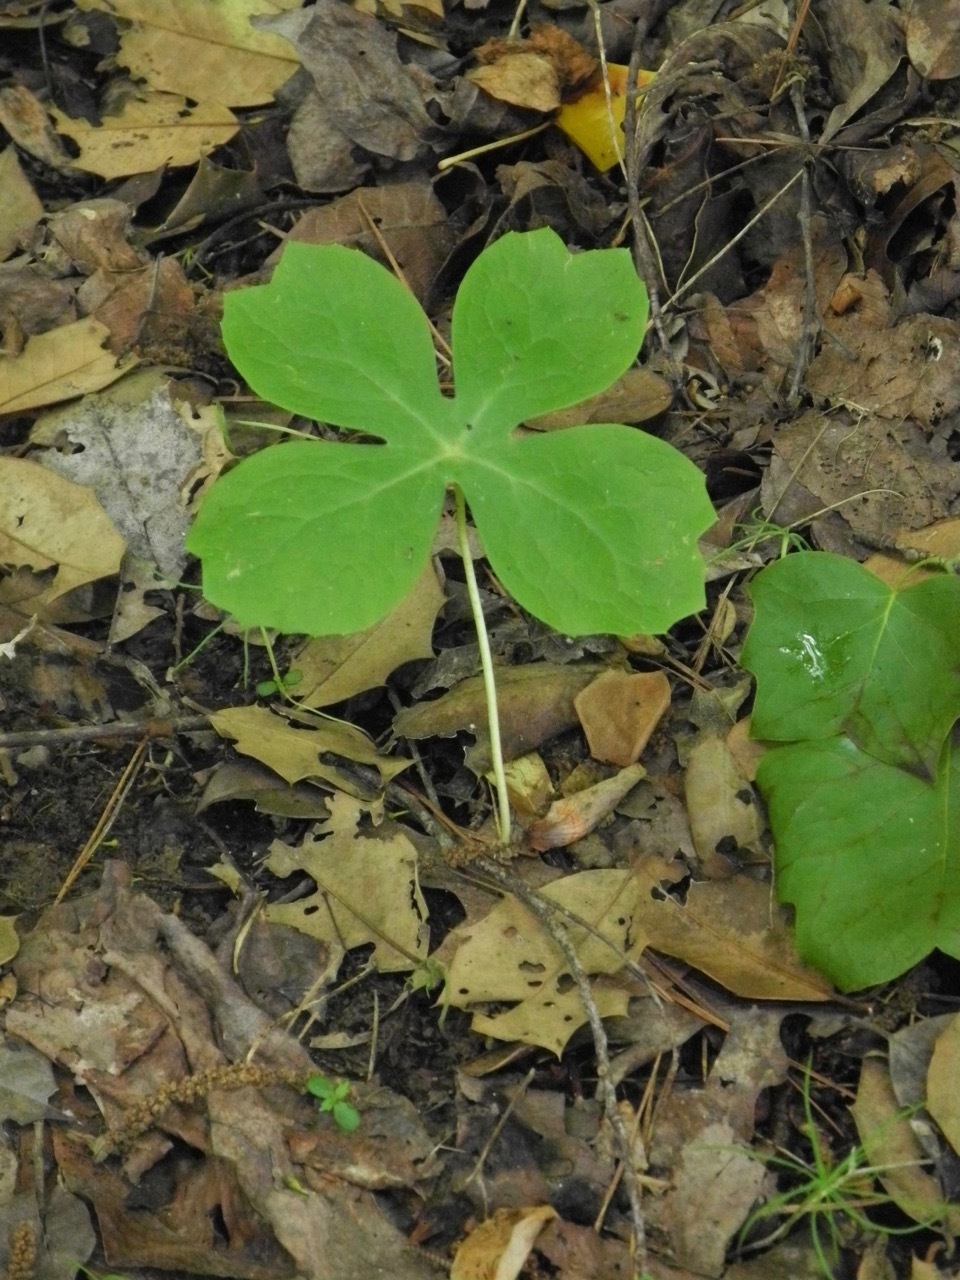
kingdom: Plantae
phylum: Tracheophyta
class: Magnoliopsida
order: Ranunculales
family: Berberidaceae
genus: Podophyllum
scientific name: Podophyllum peltatum
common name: Wild mandrake
